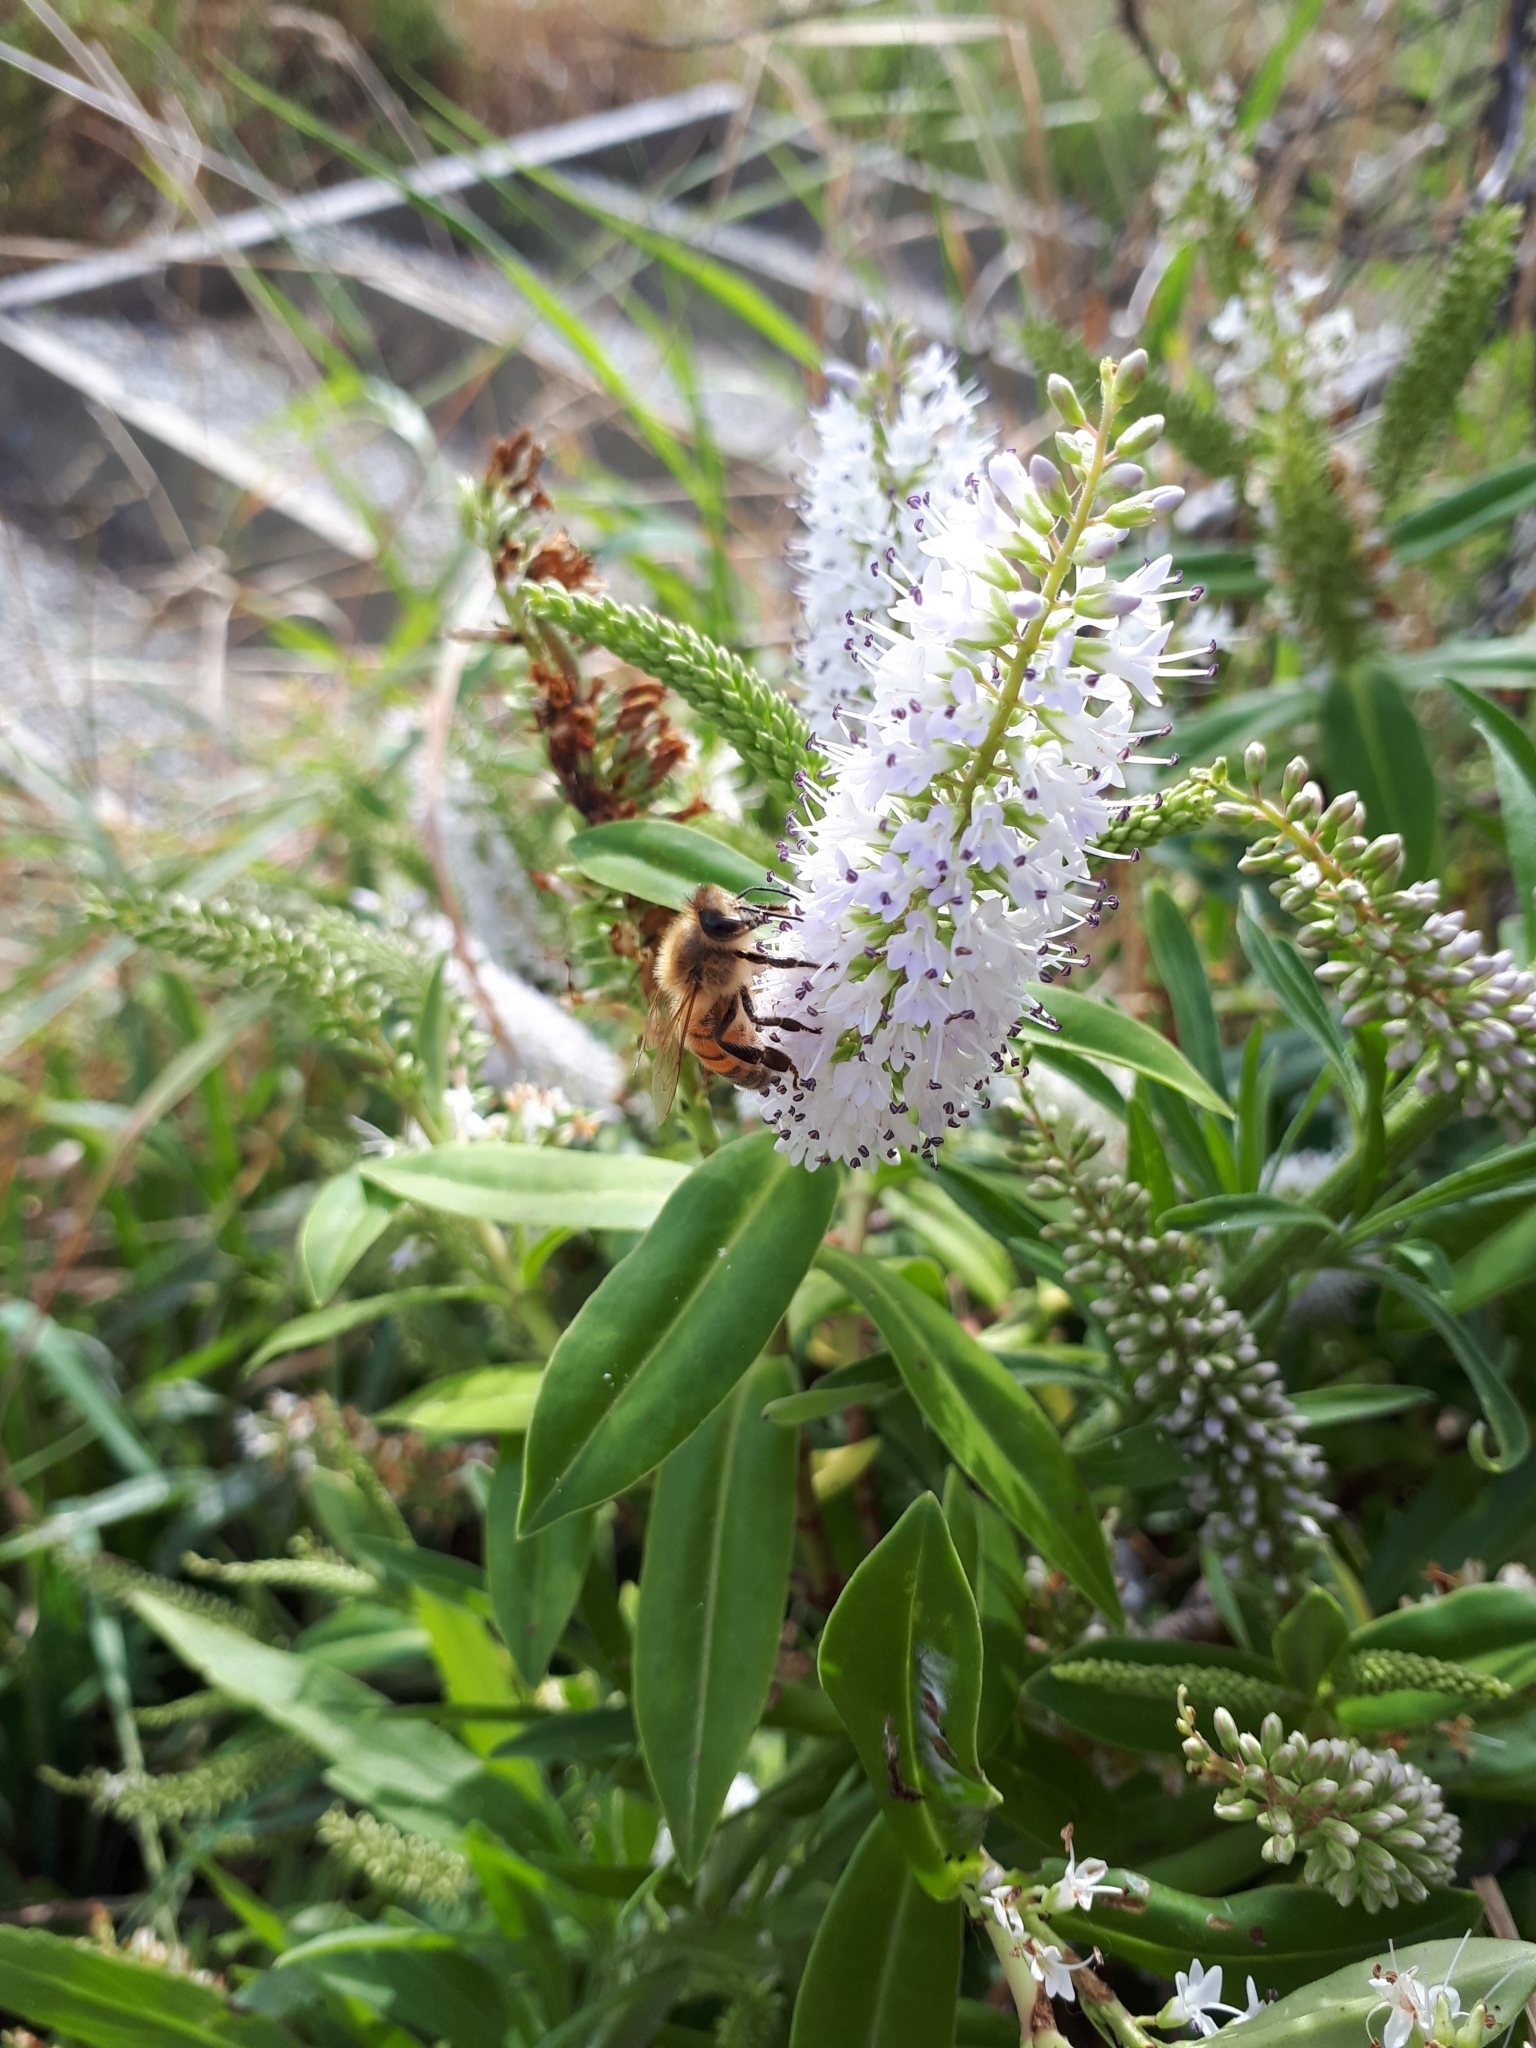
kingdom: Animalia
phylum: Arthropoda
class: Insecta
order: Hymenoptera
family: Apidae
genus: Apis
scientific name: Apis mellifera
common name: Honey bee
